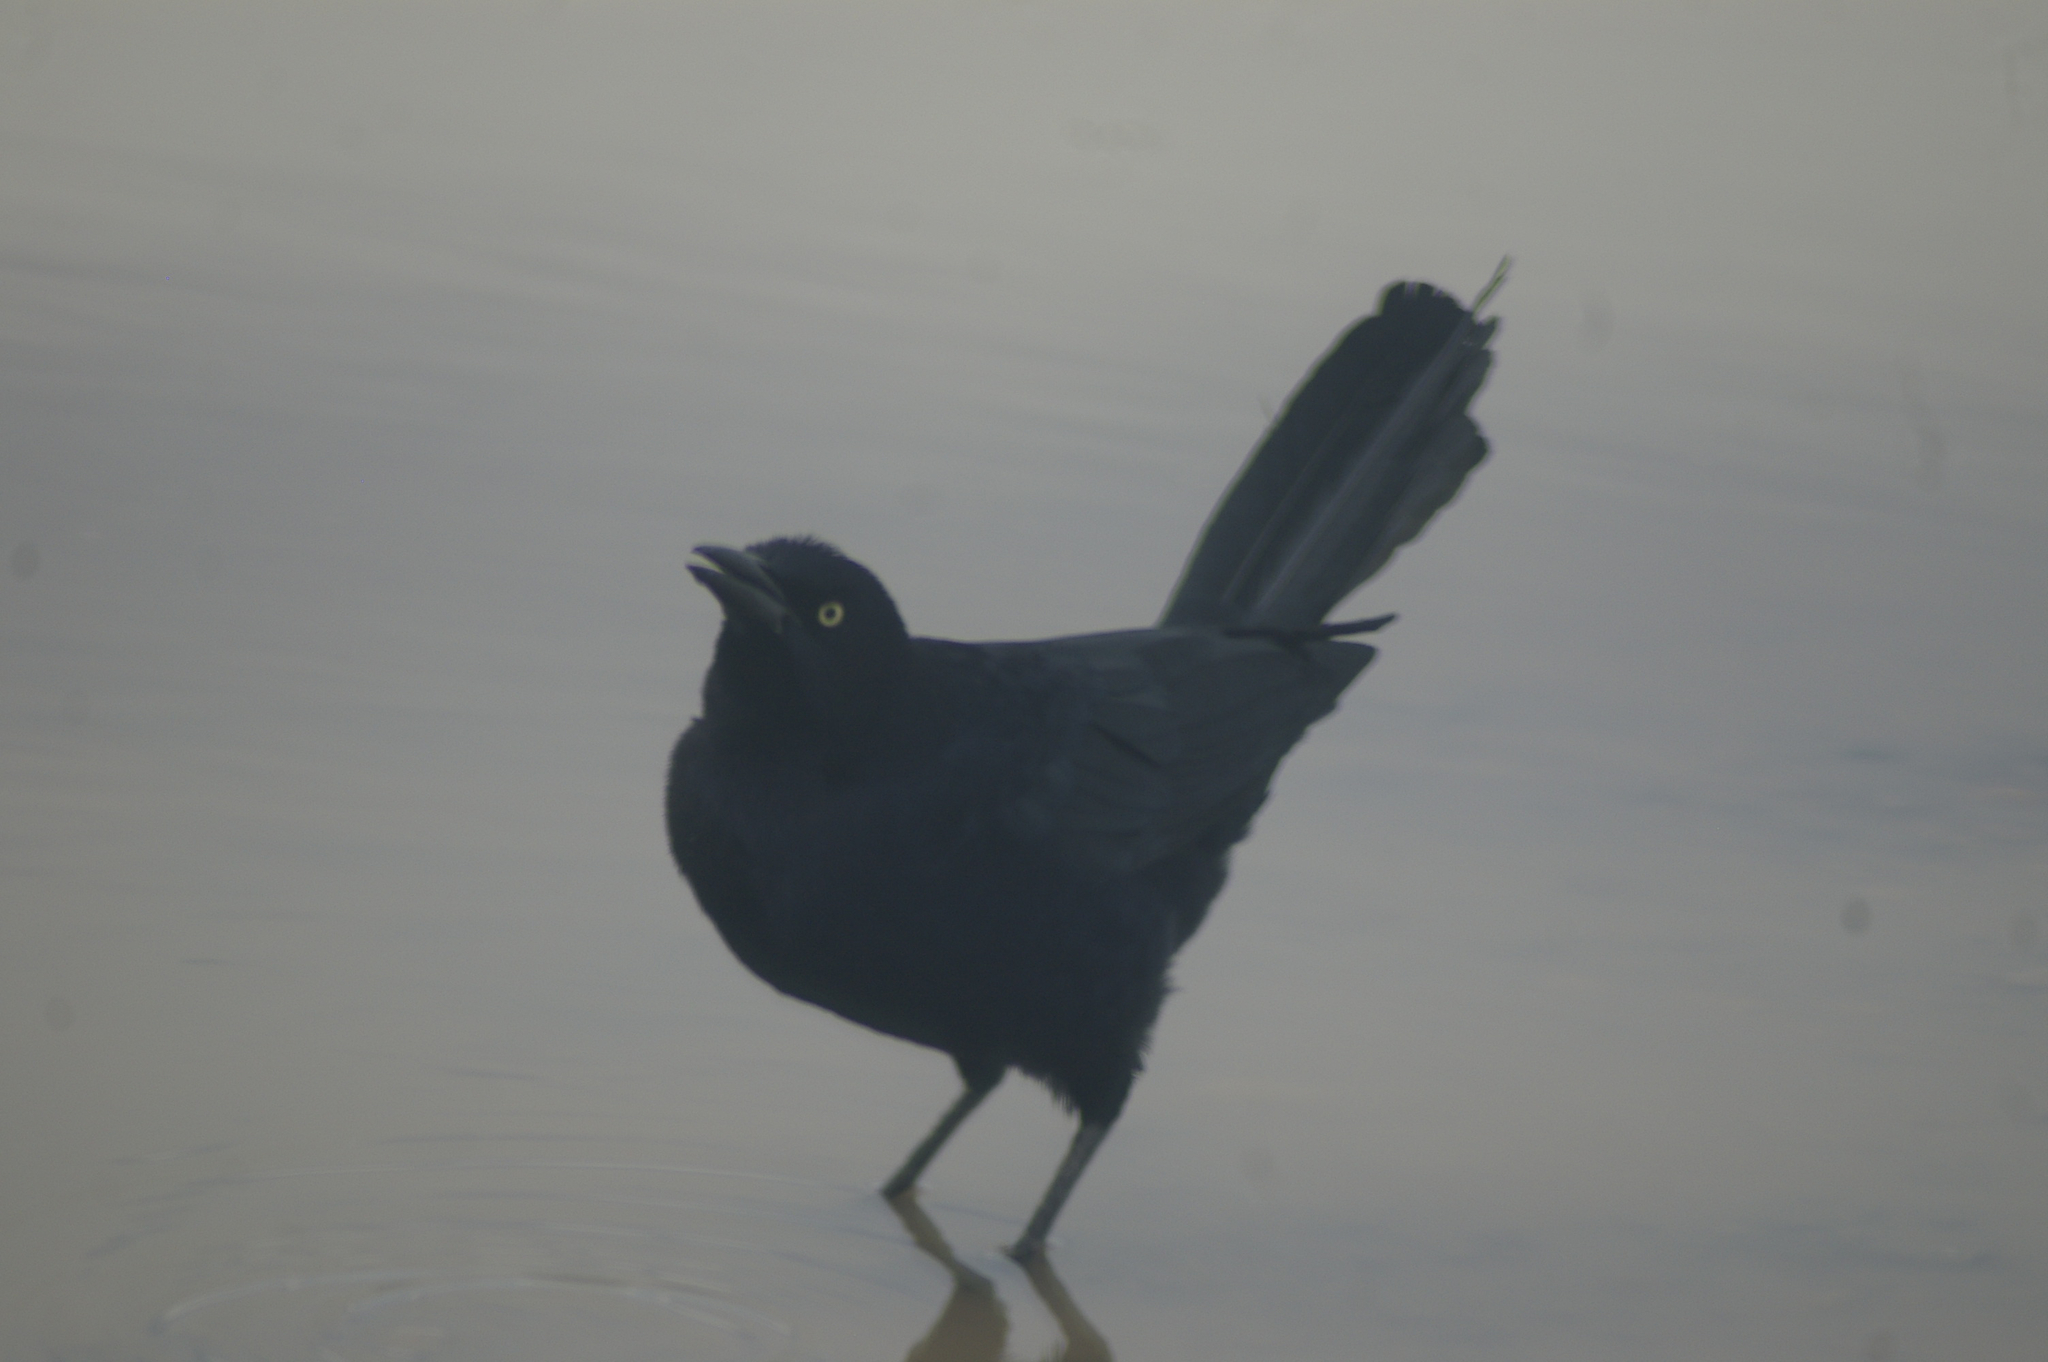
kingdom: Animalia
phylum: Chordata
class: Aves
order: Passeriformes
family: Icteridae
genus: Quiscalus
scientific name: Quiscalus mexicanus
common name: Great-tailed grackle
